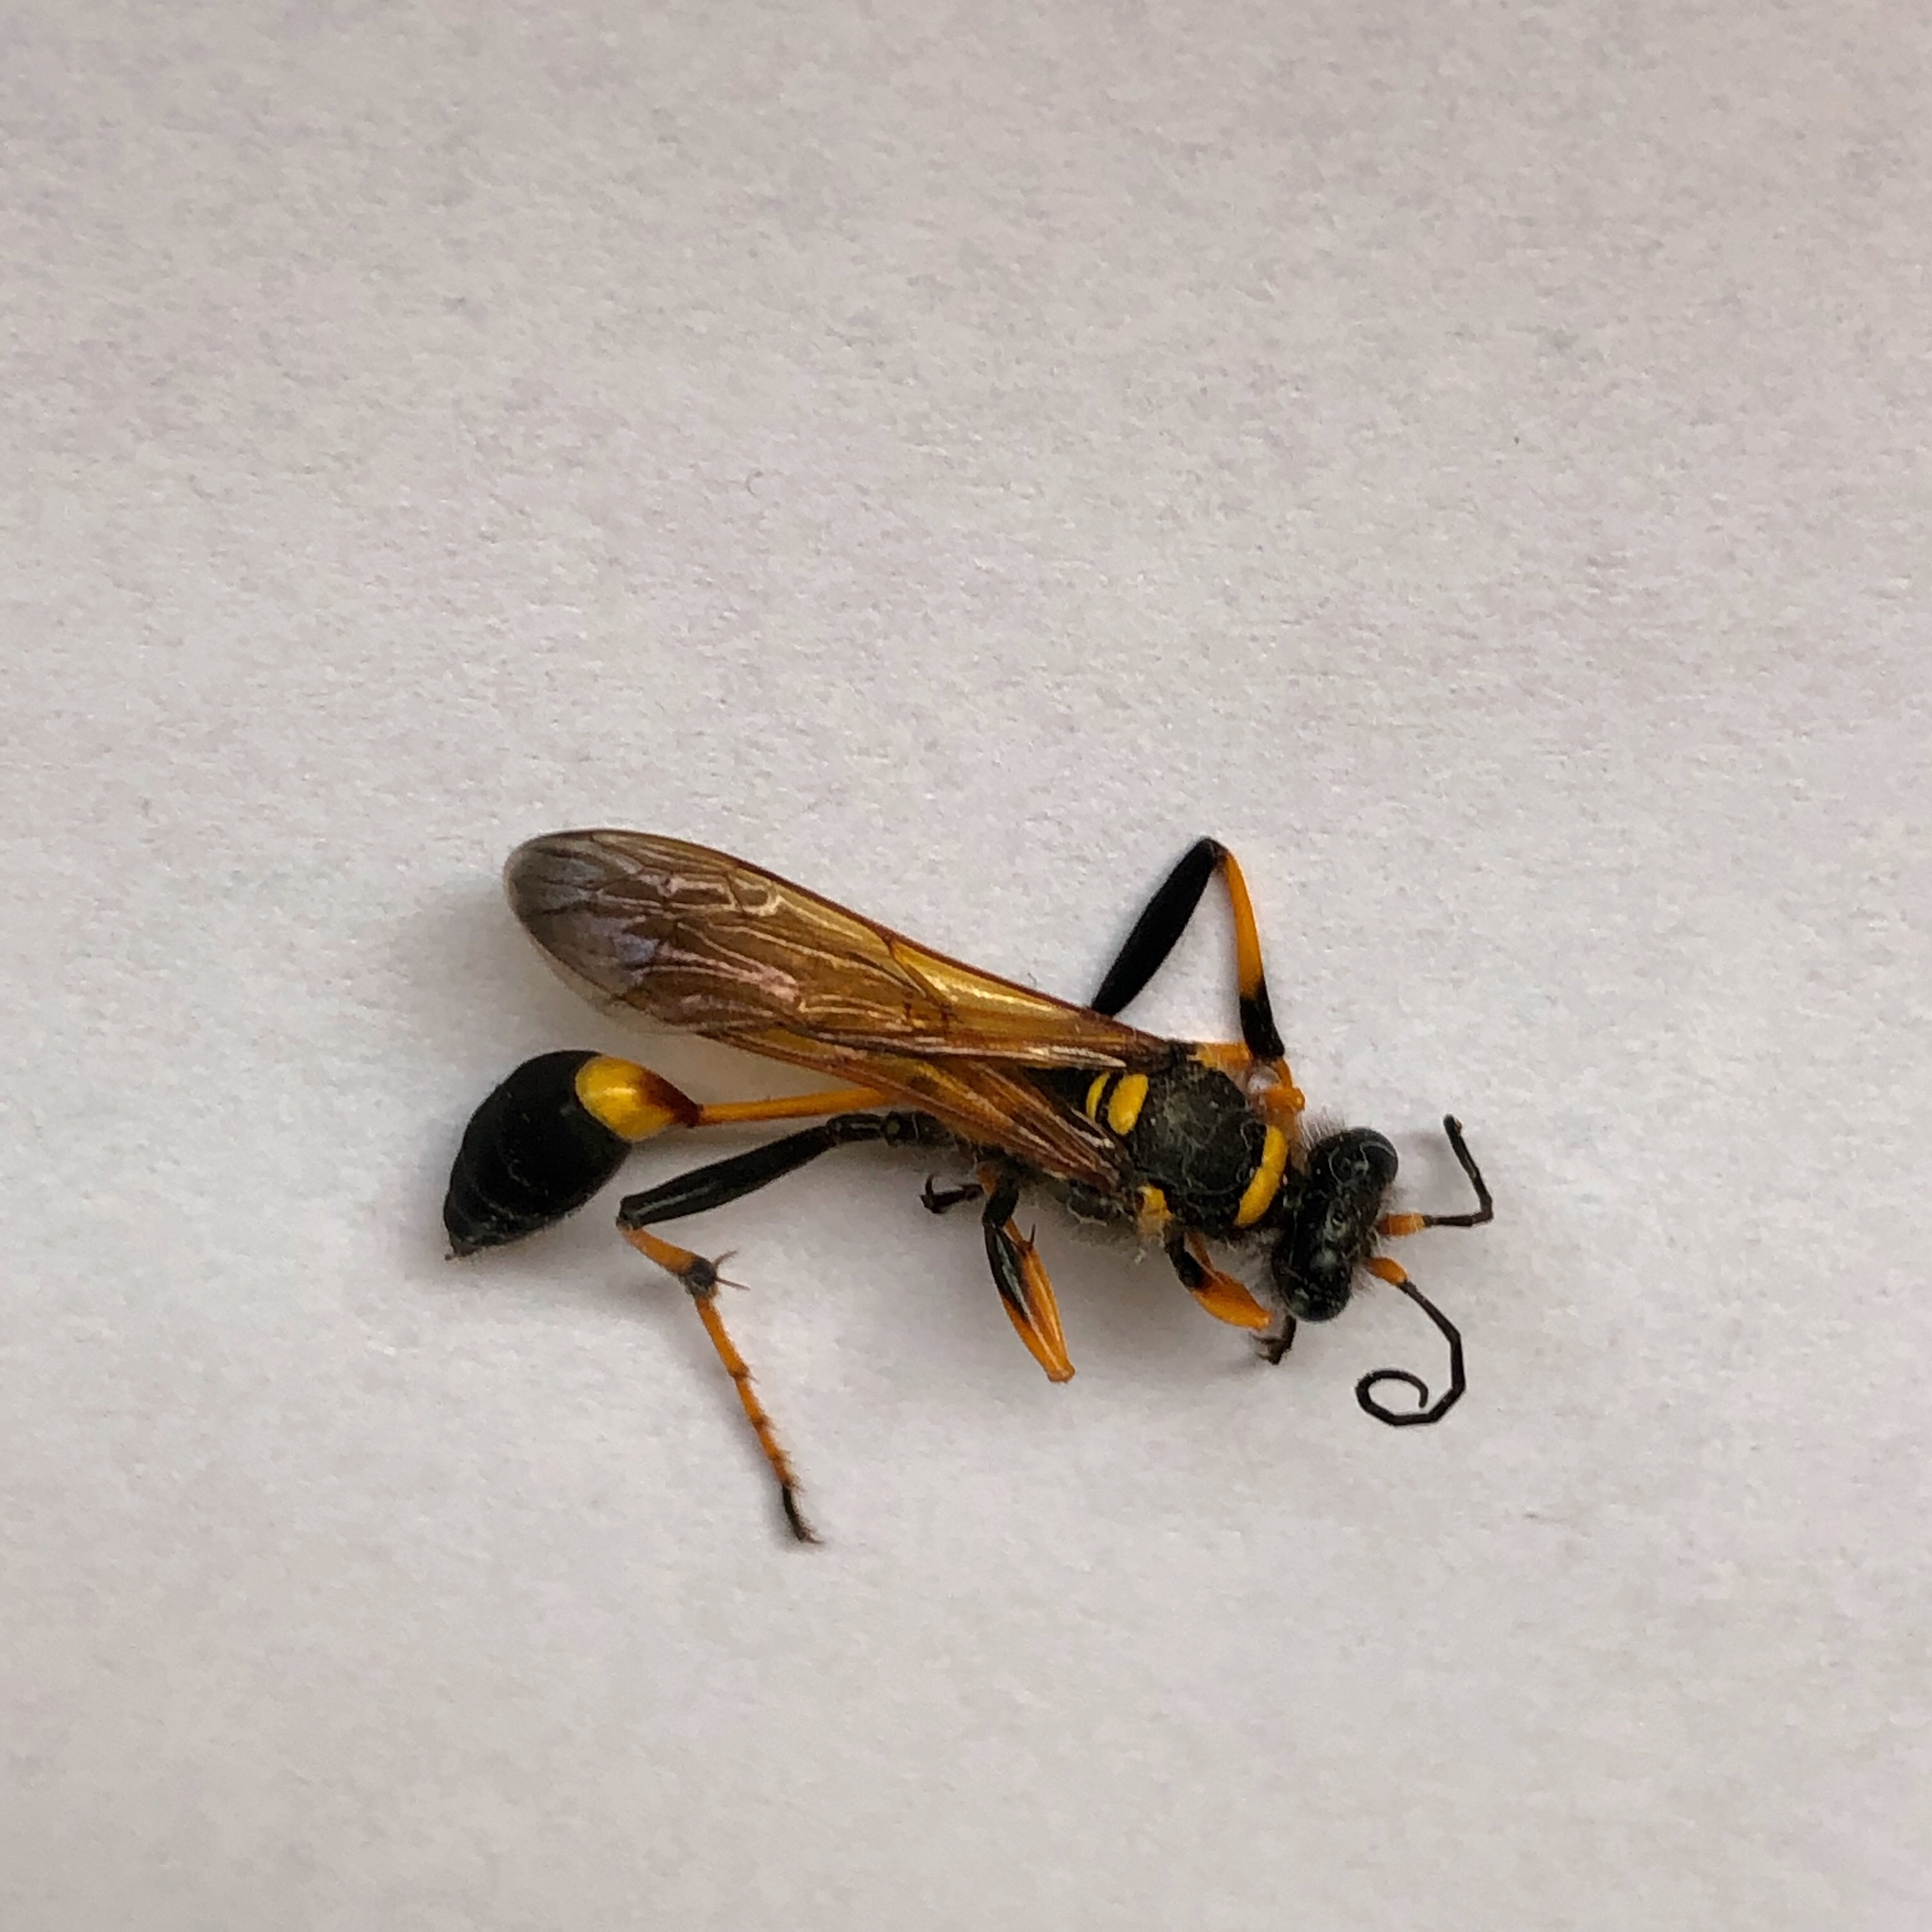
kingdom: Animalia
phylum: Arthropoda
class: Insecta
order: Hymenoptera
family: Sphecidae
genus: Sceliphron
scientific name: Sceliphron caementarium
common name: Mud dauber
